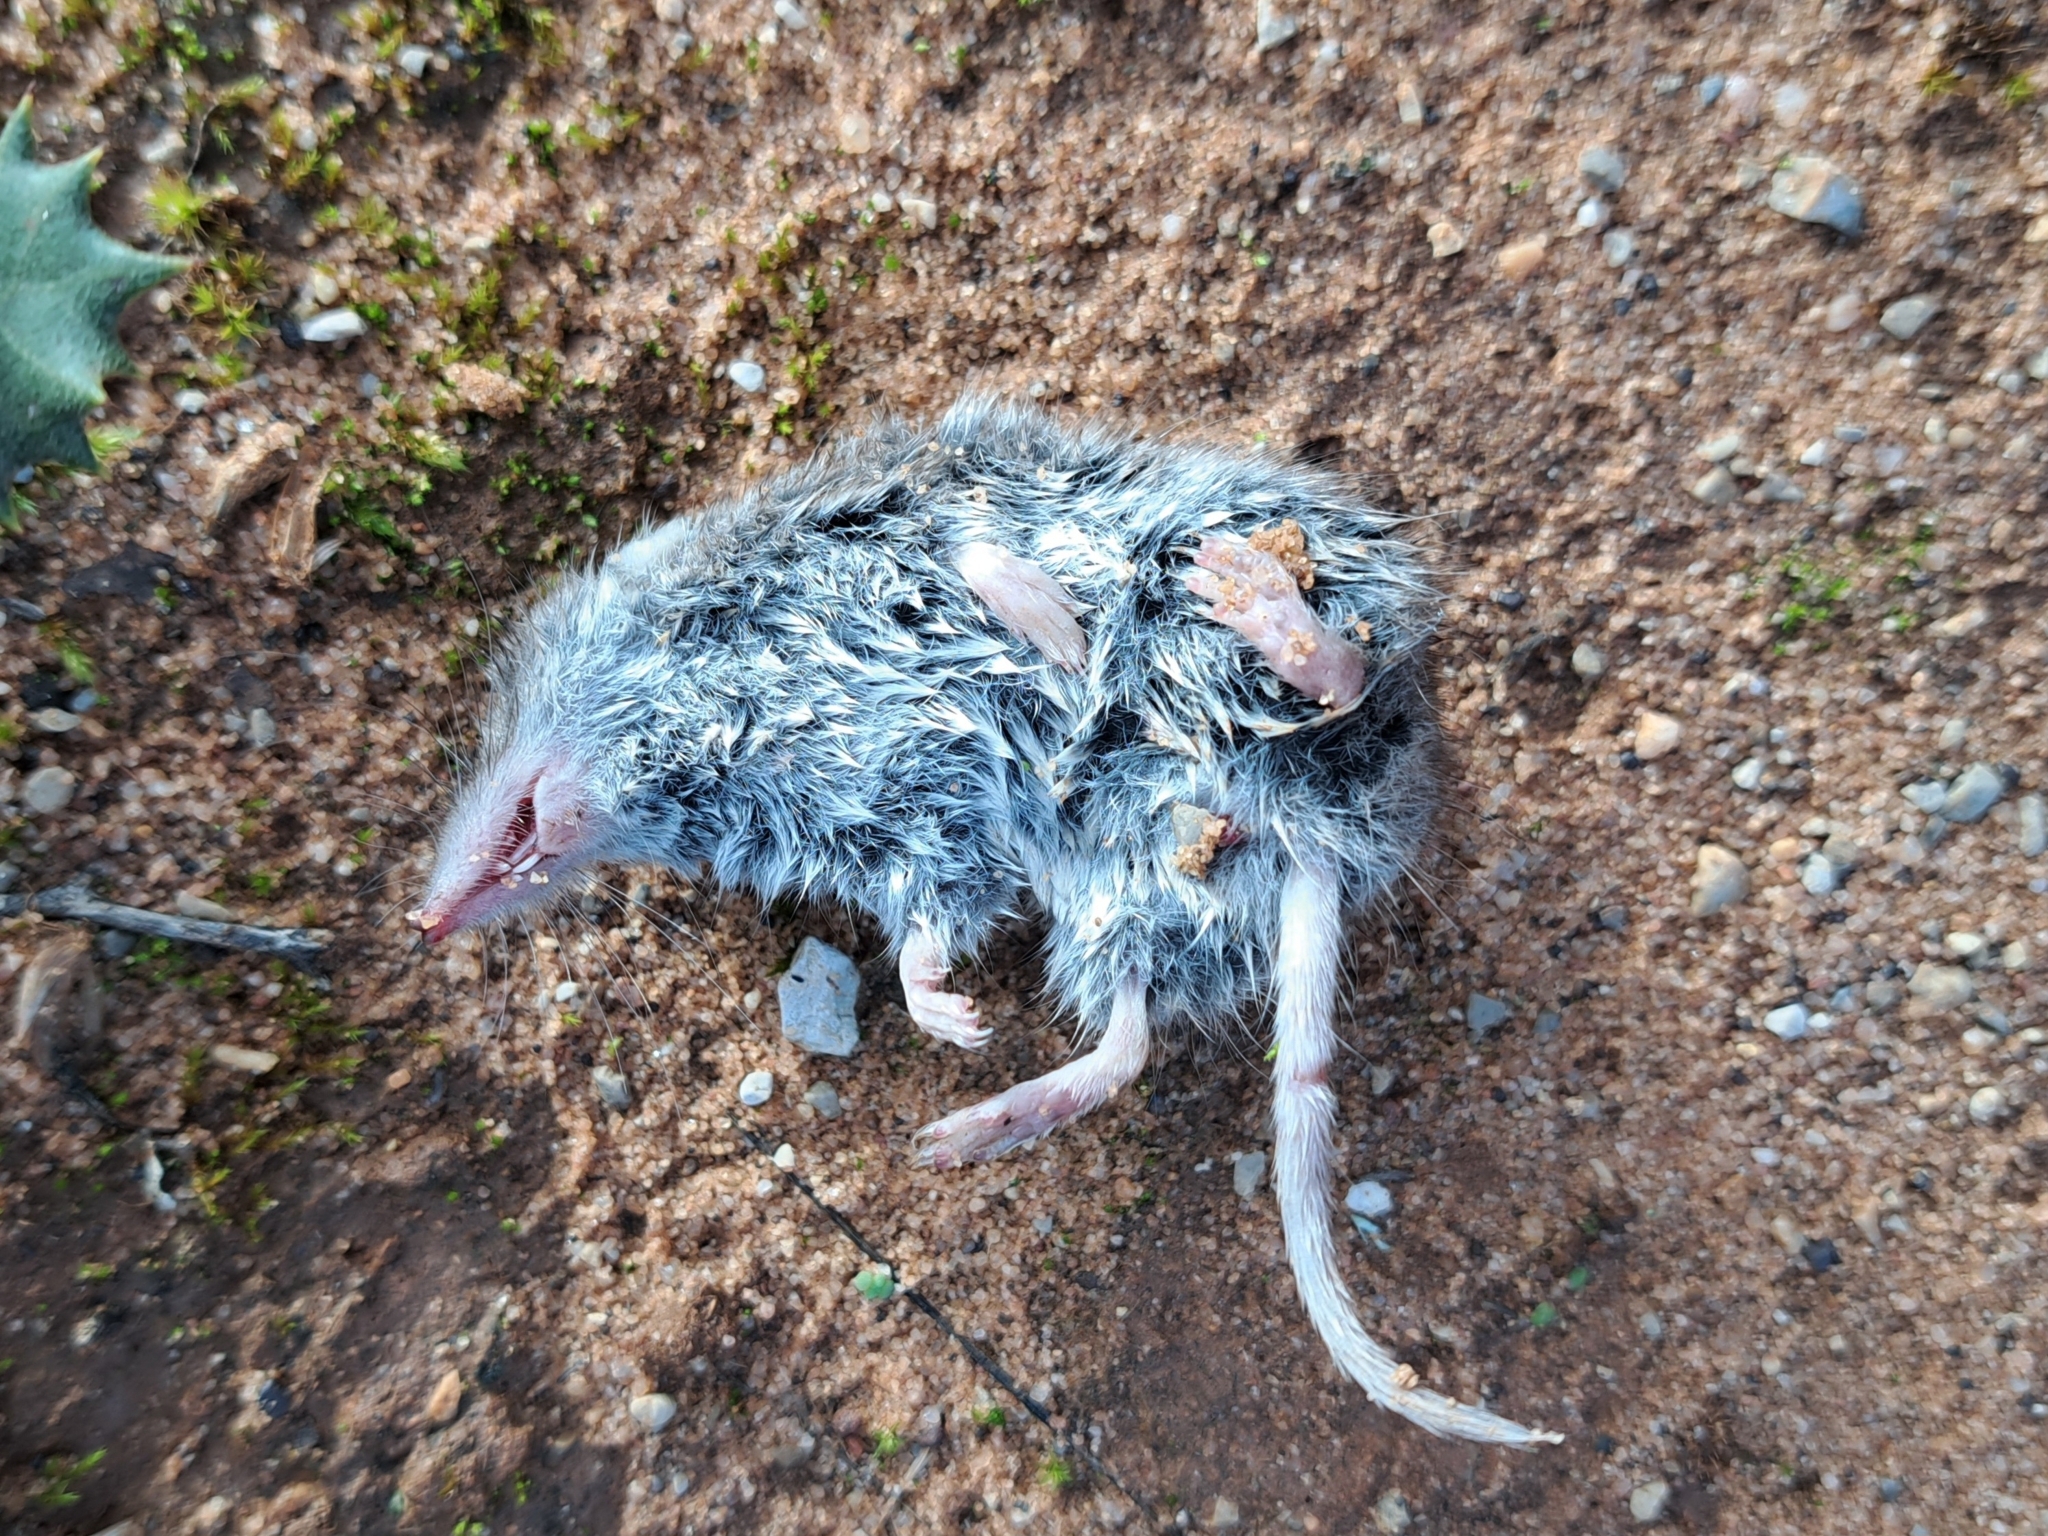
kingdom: Animalia
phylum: Chordata
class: Mammalia
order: Soricomorpha
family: Soricidae
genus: Crocidura
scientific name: Crocidura russula
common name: Greater white-toothed shrew
